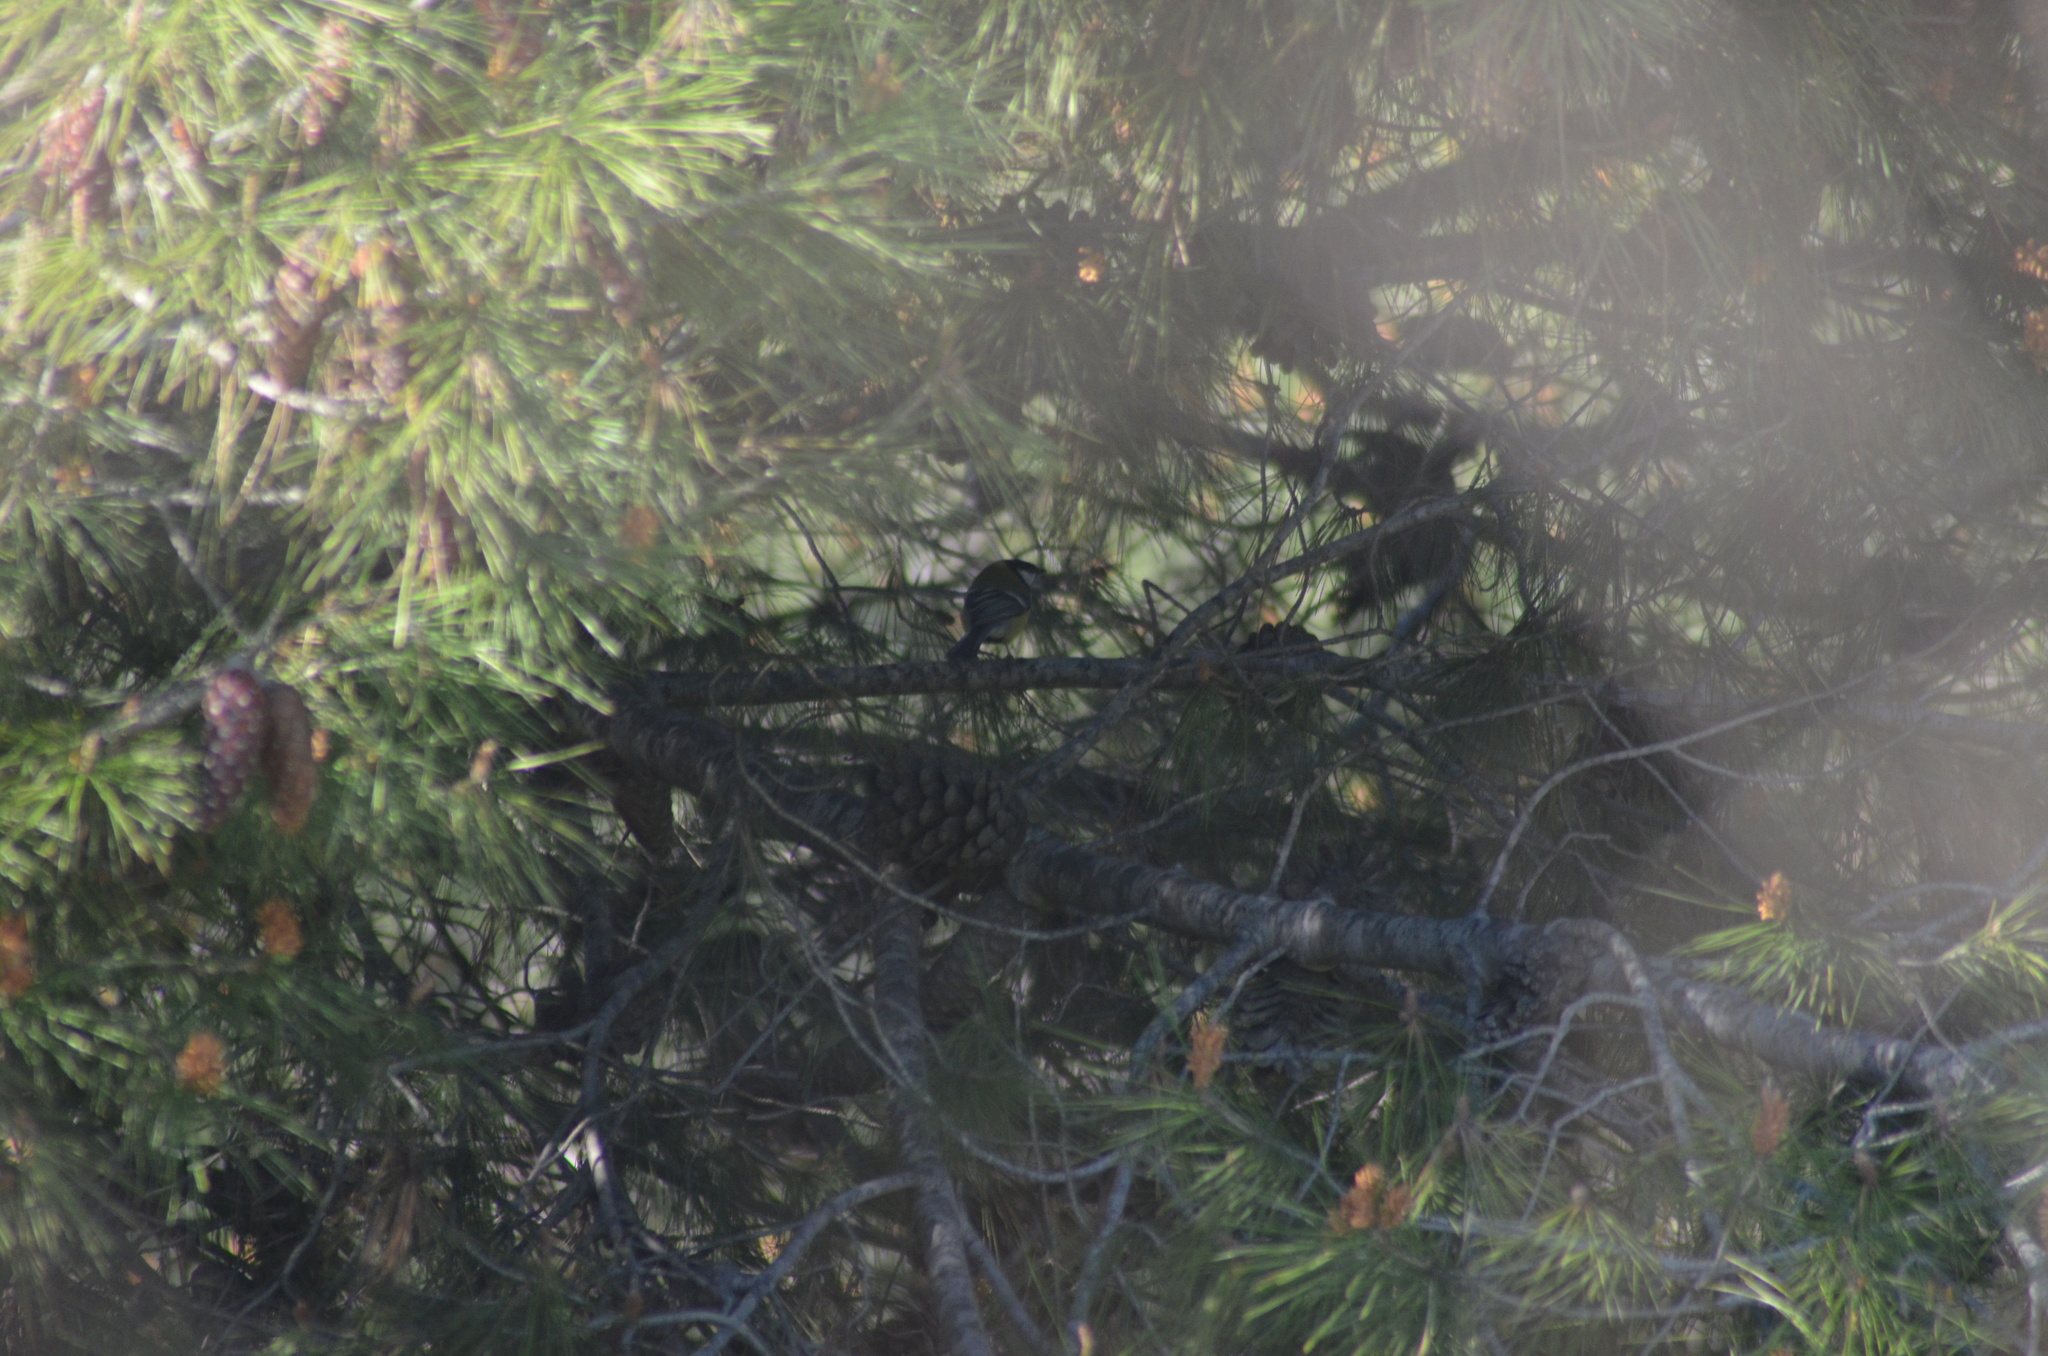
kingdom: Animalia
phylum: Chordata
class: Aves
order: Passeriformes
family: Paridae
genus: Parus
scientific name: Parus major
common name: Great tit
